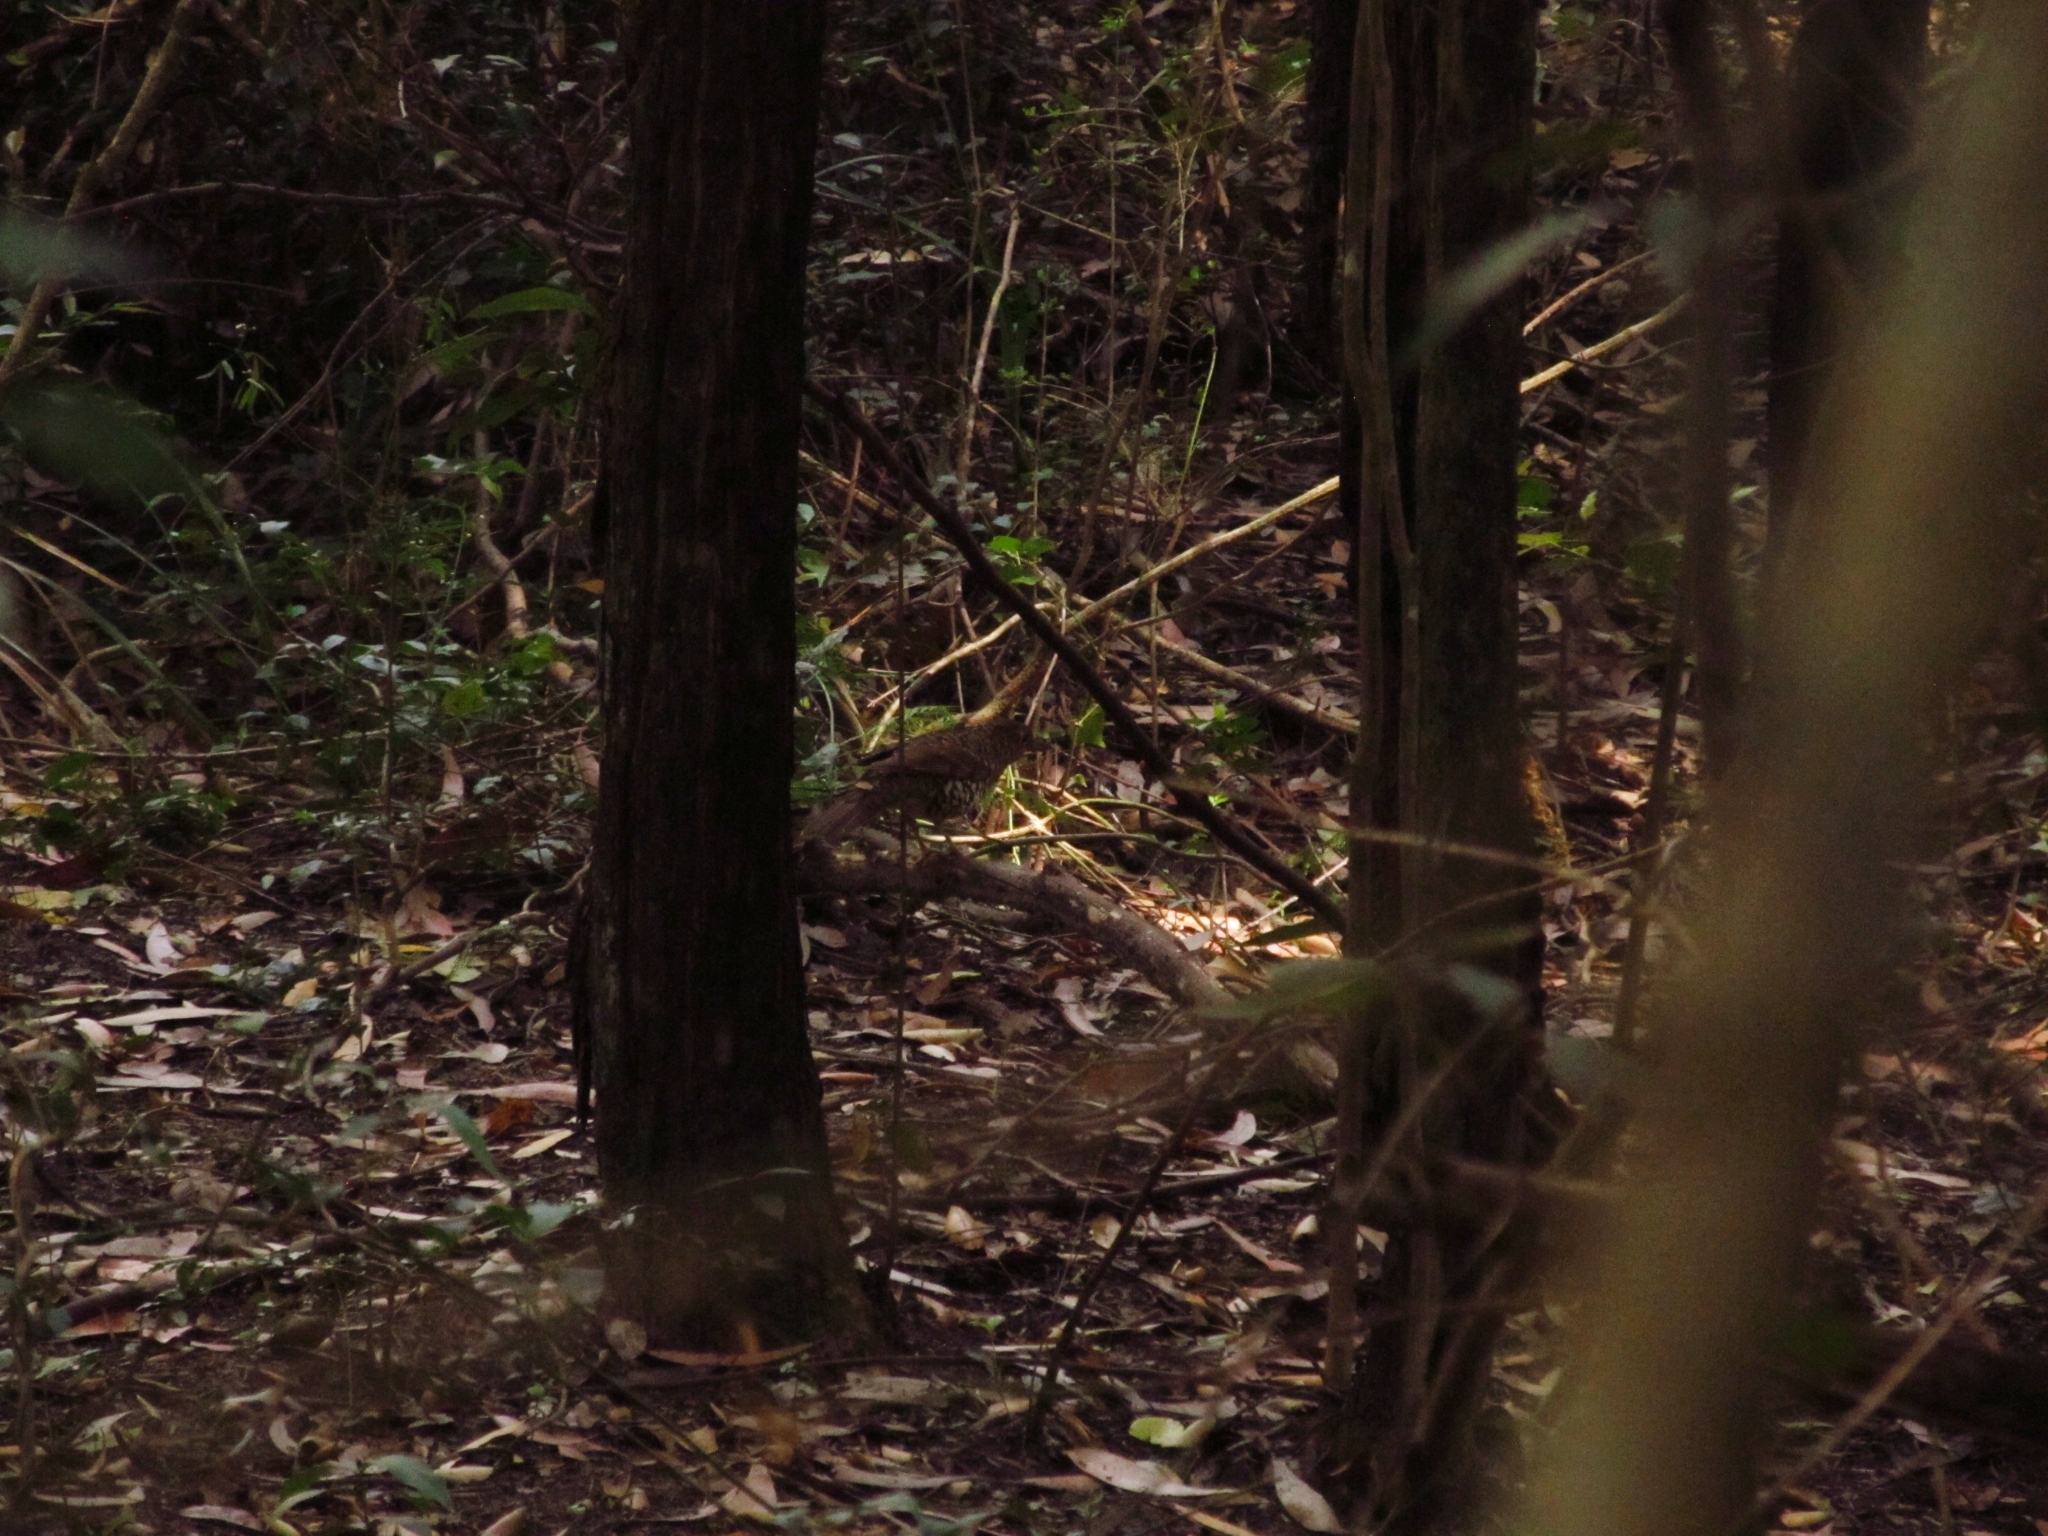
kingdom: Animalia
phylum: Chordata
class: Aves
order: Passeriformes
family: Turdidae
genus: Zoothera
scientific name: Zoothera lunulata
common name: Bassian thrush
